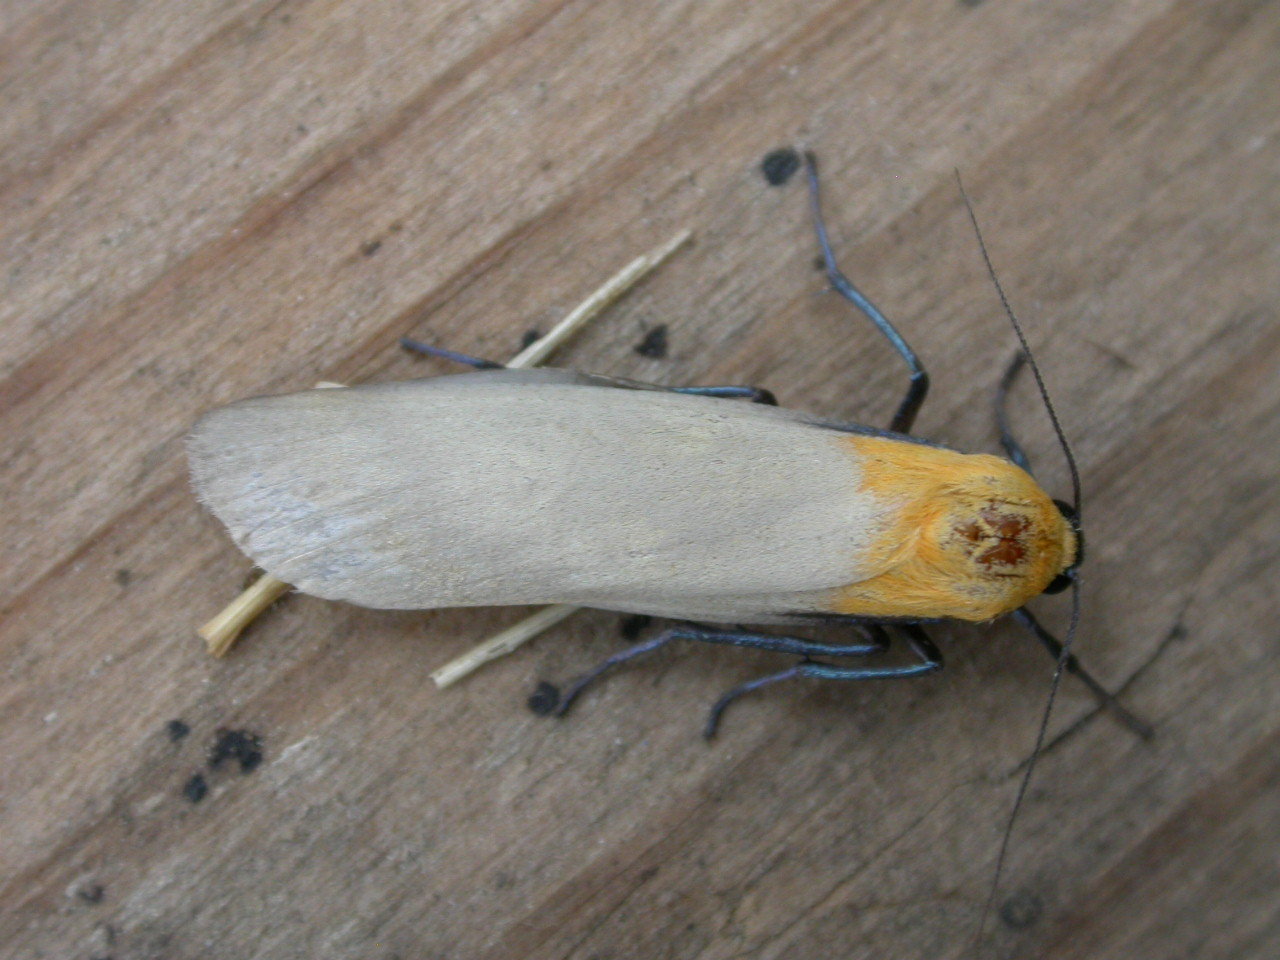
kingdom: Animalia
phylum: Arthropoda
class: Insecta
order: Lepidoptera
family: Erebidae
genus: Lithosia
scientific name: Lithosia quadra
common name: Four-spotted footman
